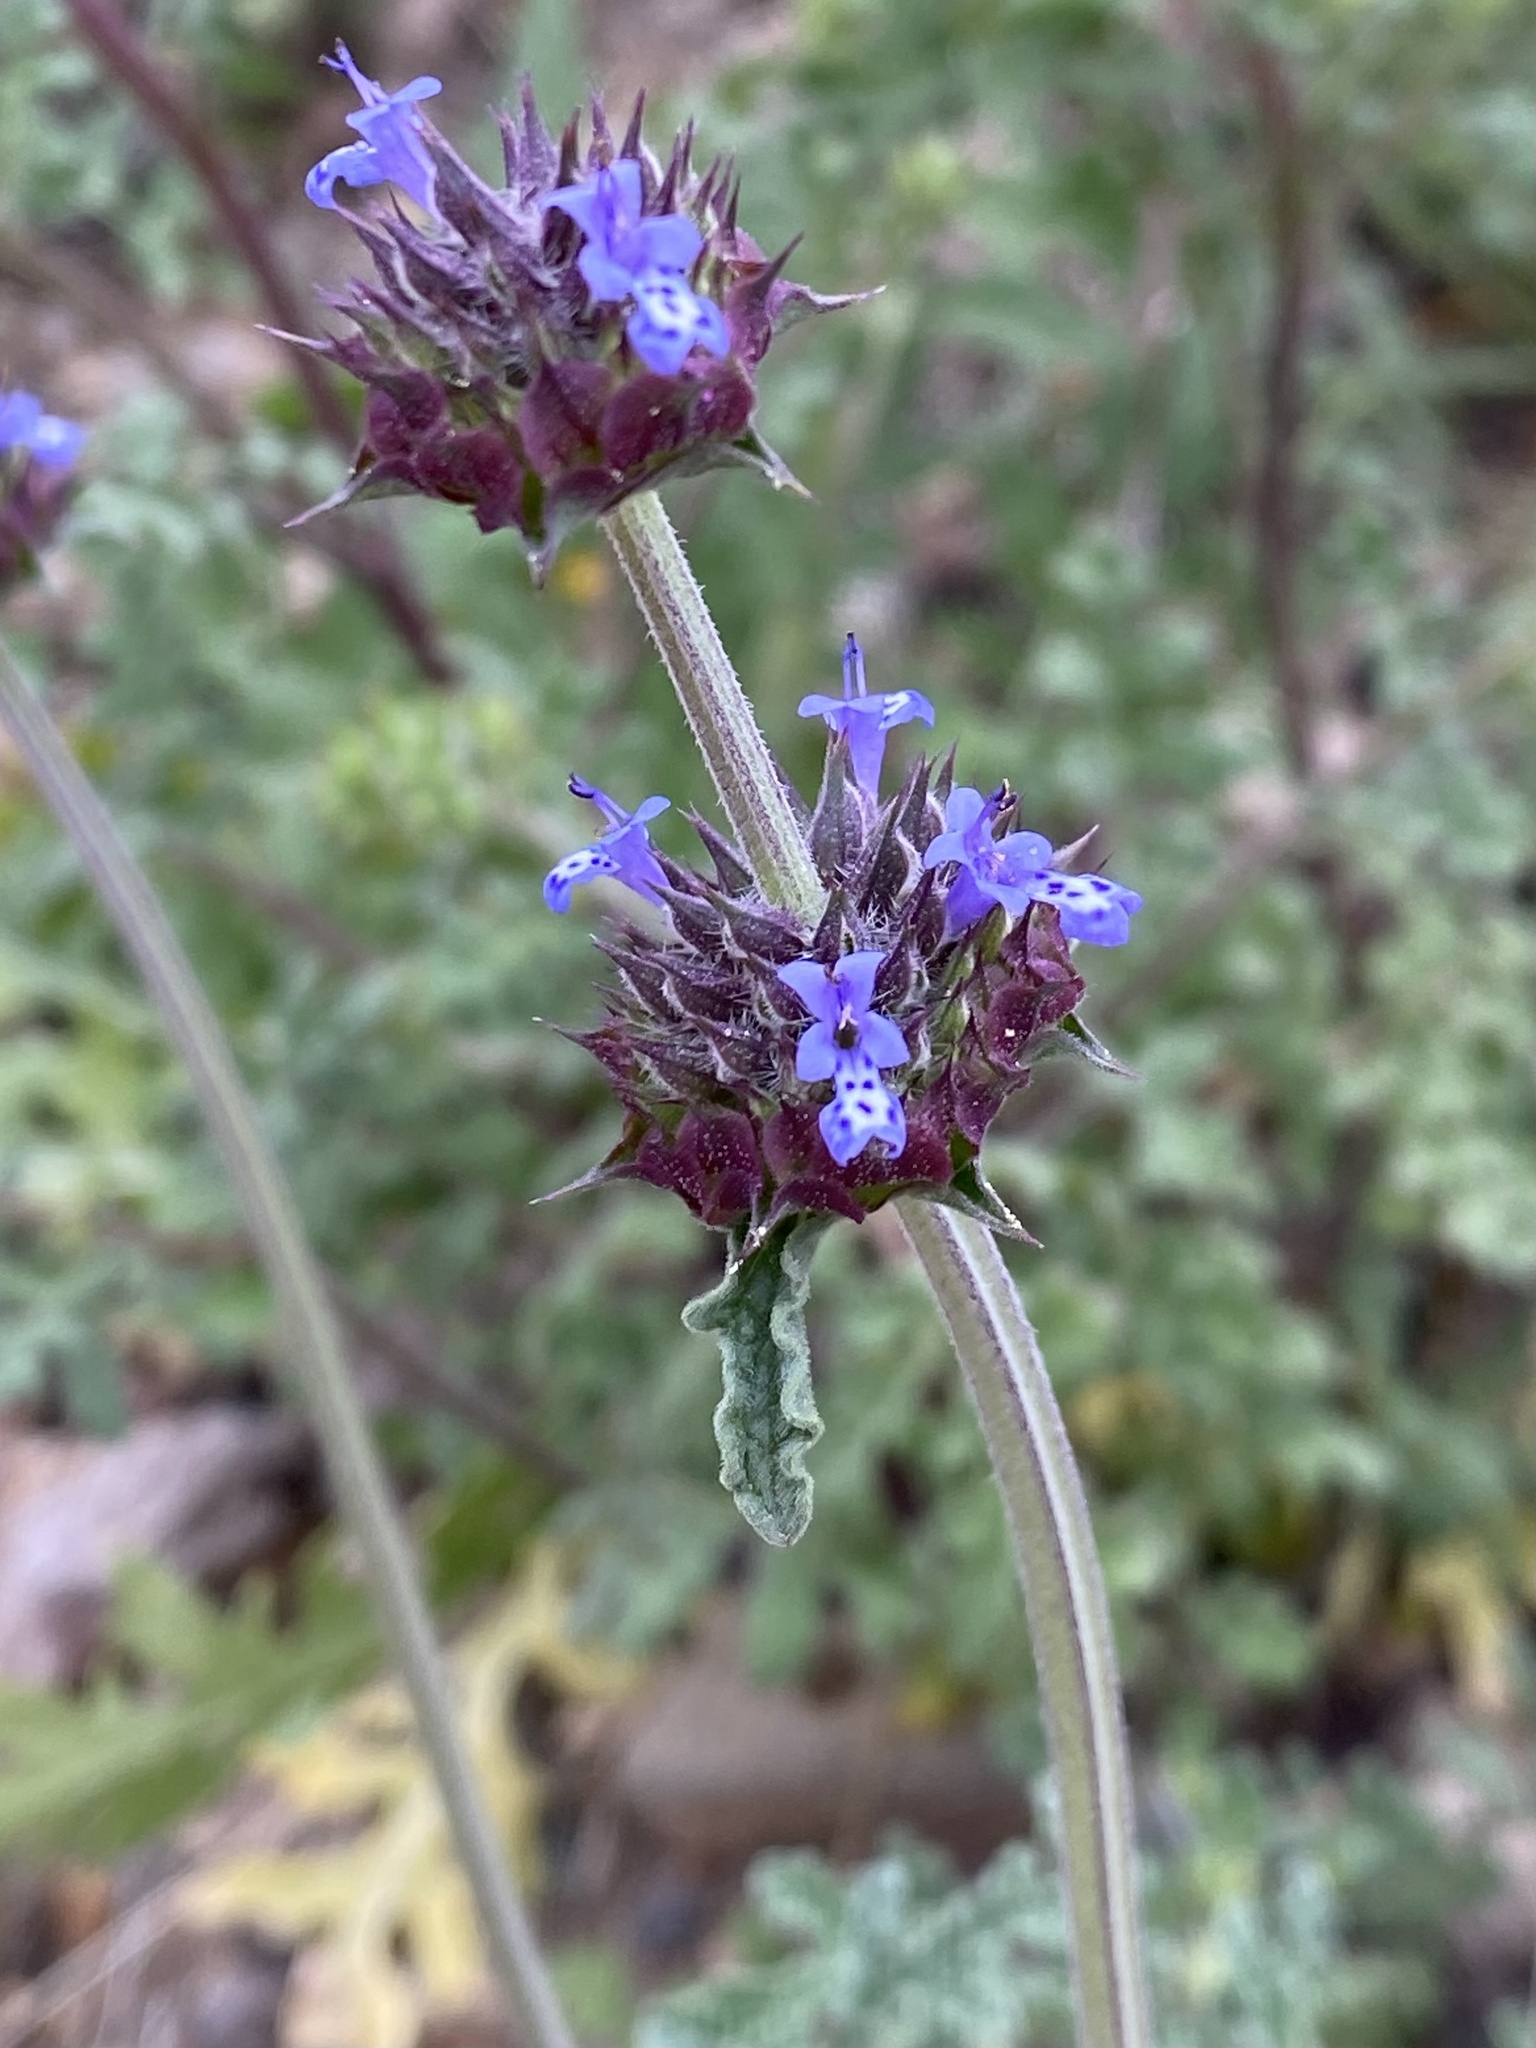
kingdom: Plantae
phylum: Tracheophyta
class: Magnoliopsida
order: Lamiales
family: Lamiaceae
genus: Salvia
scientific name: Salvia columbariae
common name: Chia
